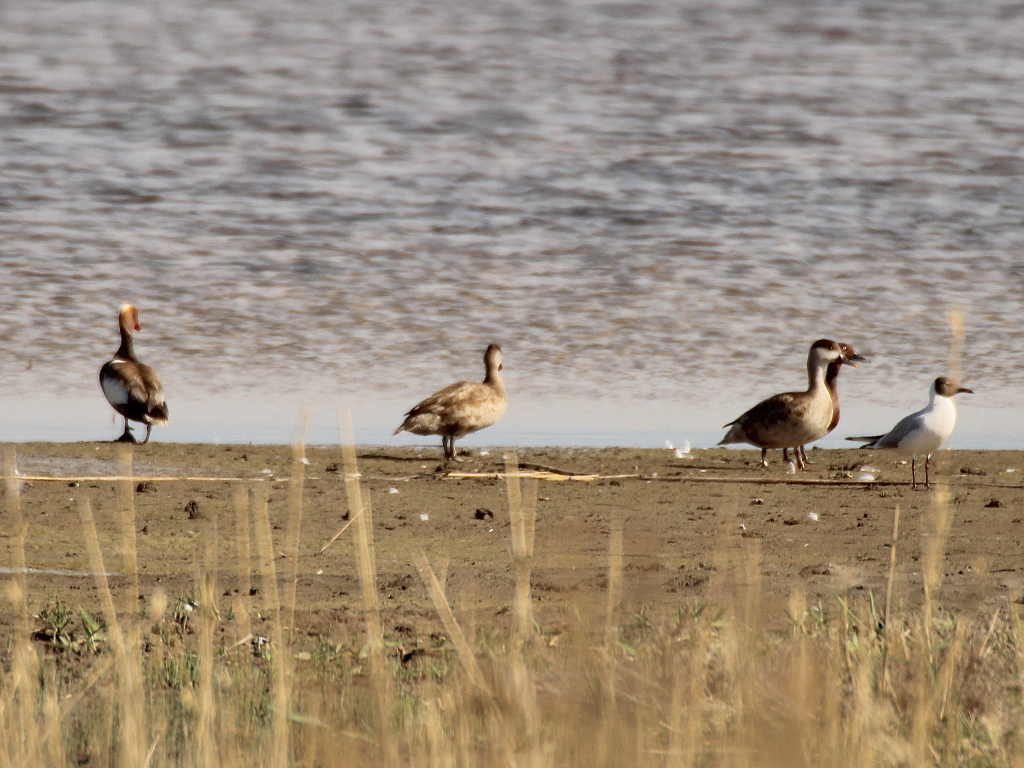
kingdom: Animalia
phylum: Chordata
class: Aves
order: Anseriformes
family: Anatidae
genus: Netta
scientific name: Netta rufina
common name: Red-crested pochard
